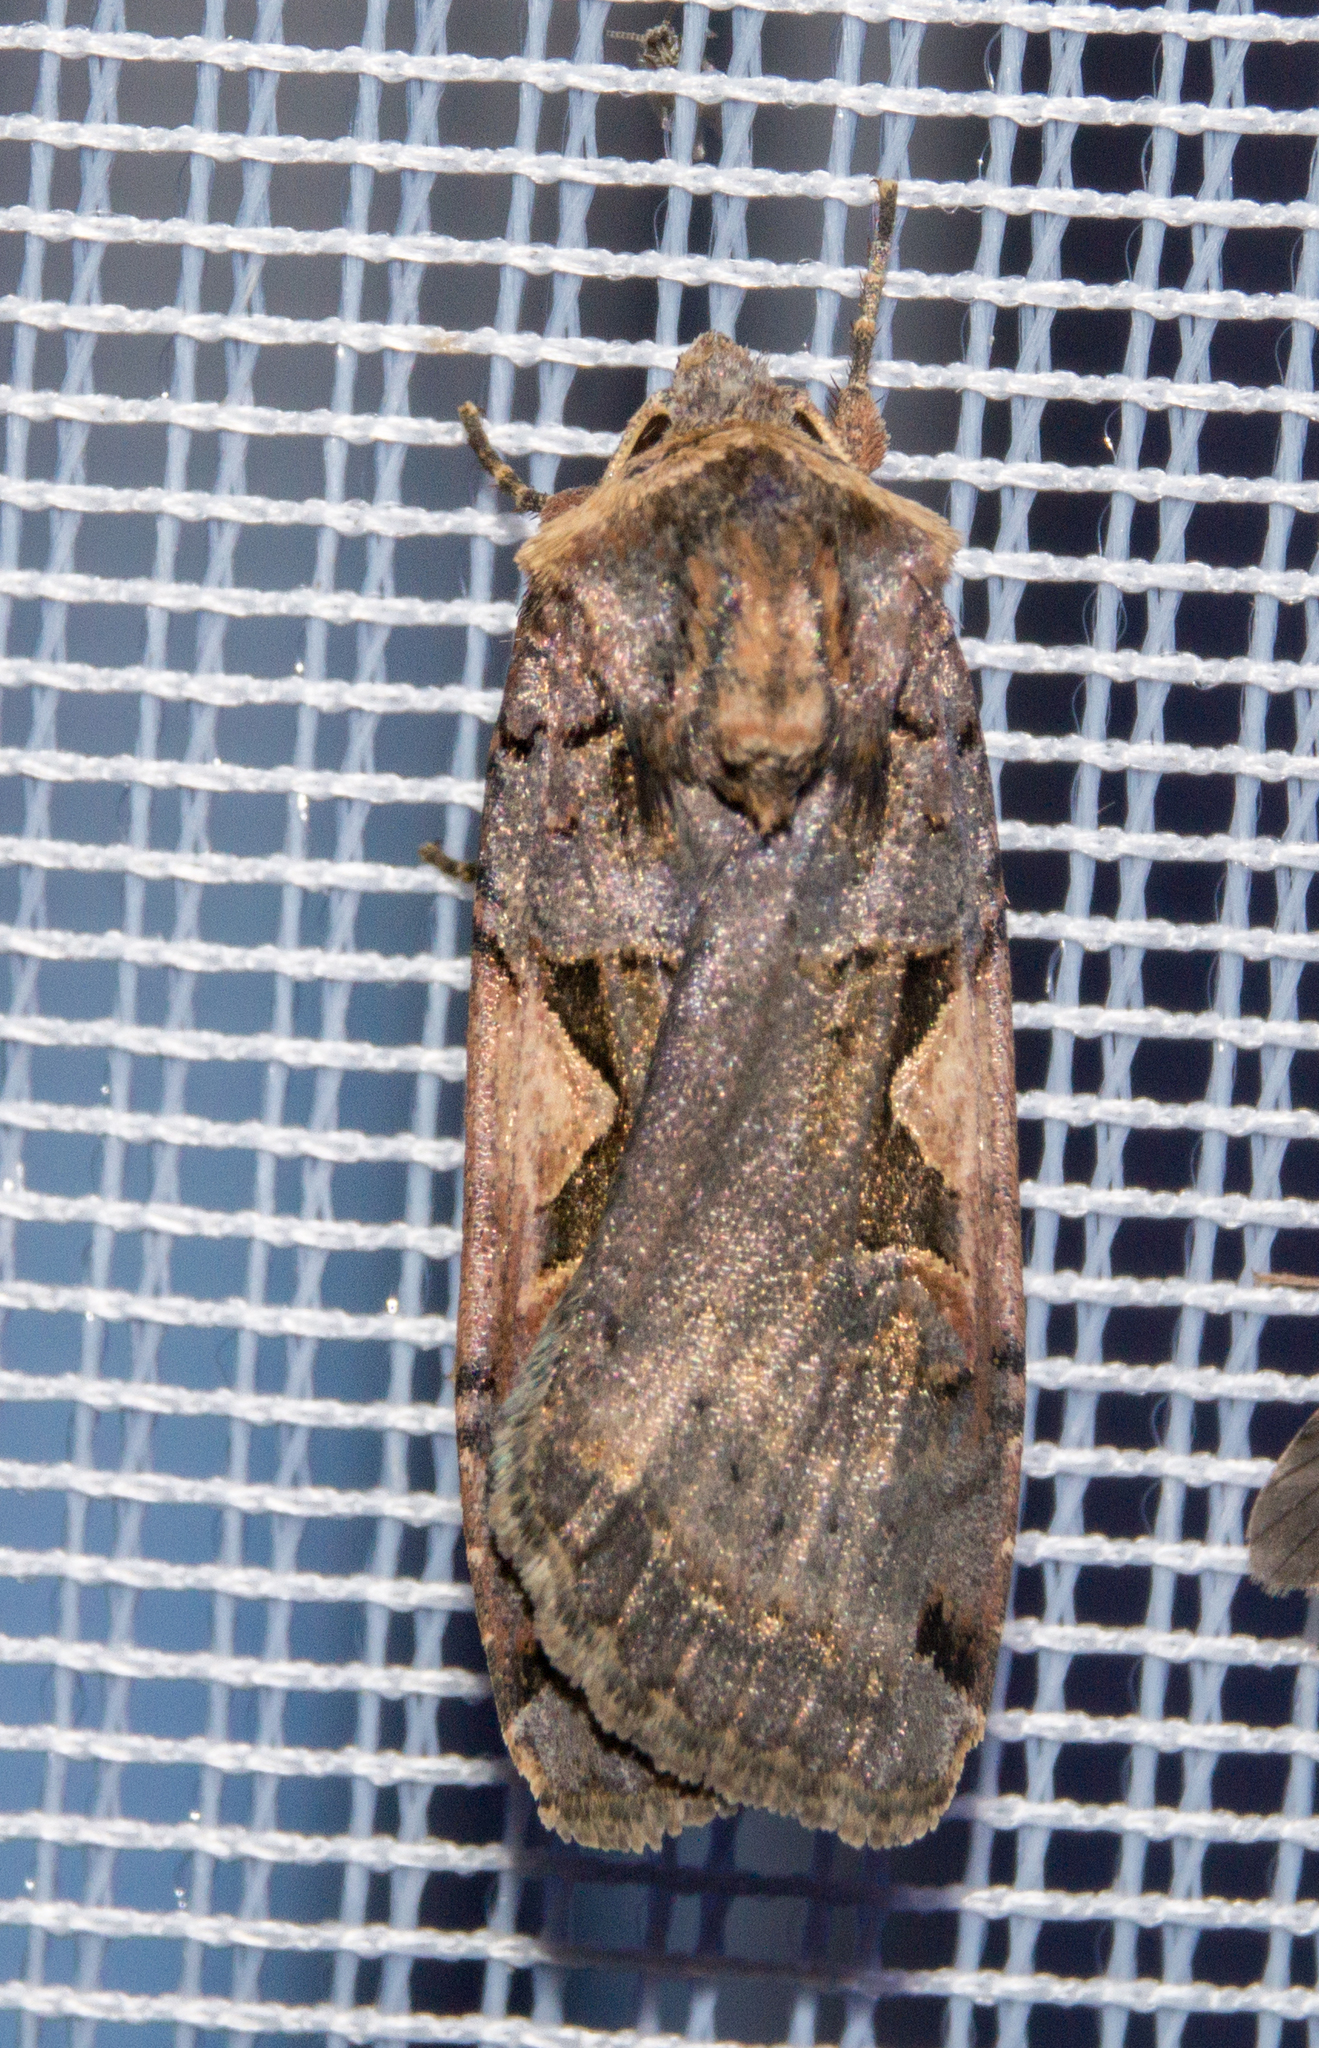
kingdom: Animalia
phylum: Arthropoda
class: Insecta
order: Lepidoptera
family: Noctuidae
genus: Xestia
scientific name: Xestia c-nigrum
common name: Setaceous hebrew character
